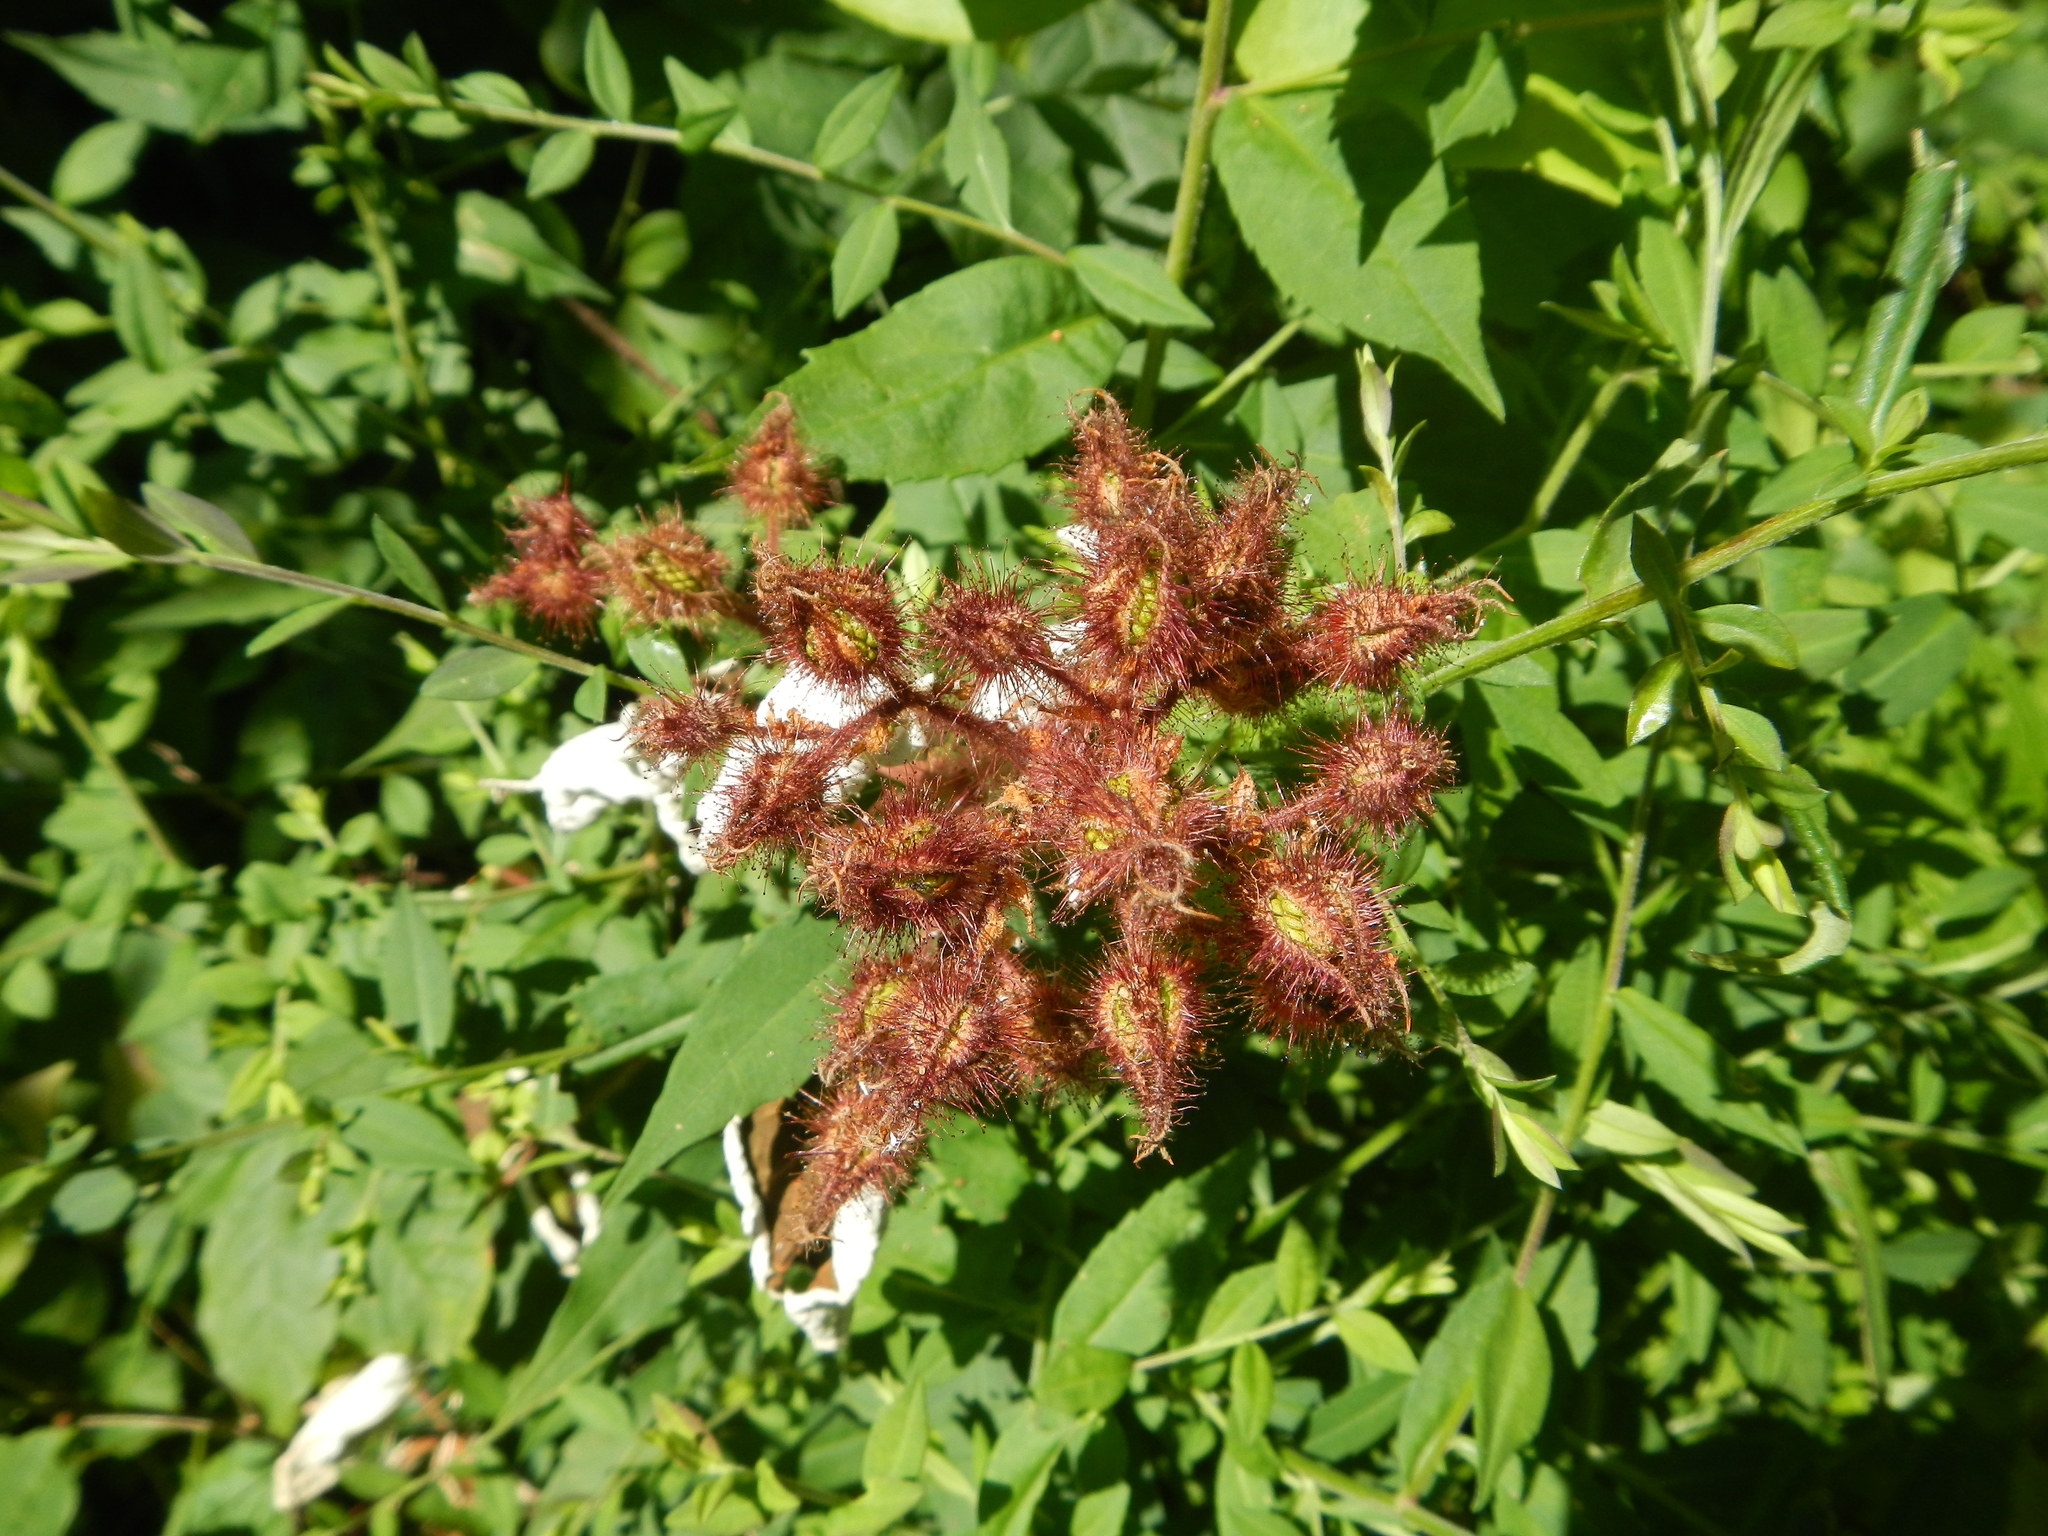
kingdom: Plantae
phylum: Tracheophyta
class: Magnoliopsida
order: Rosales
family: Rosaceae
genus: Rubus
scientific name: Rubus phoenicolasius
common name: Japanese wineberry
